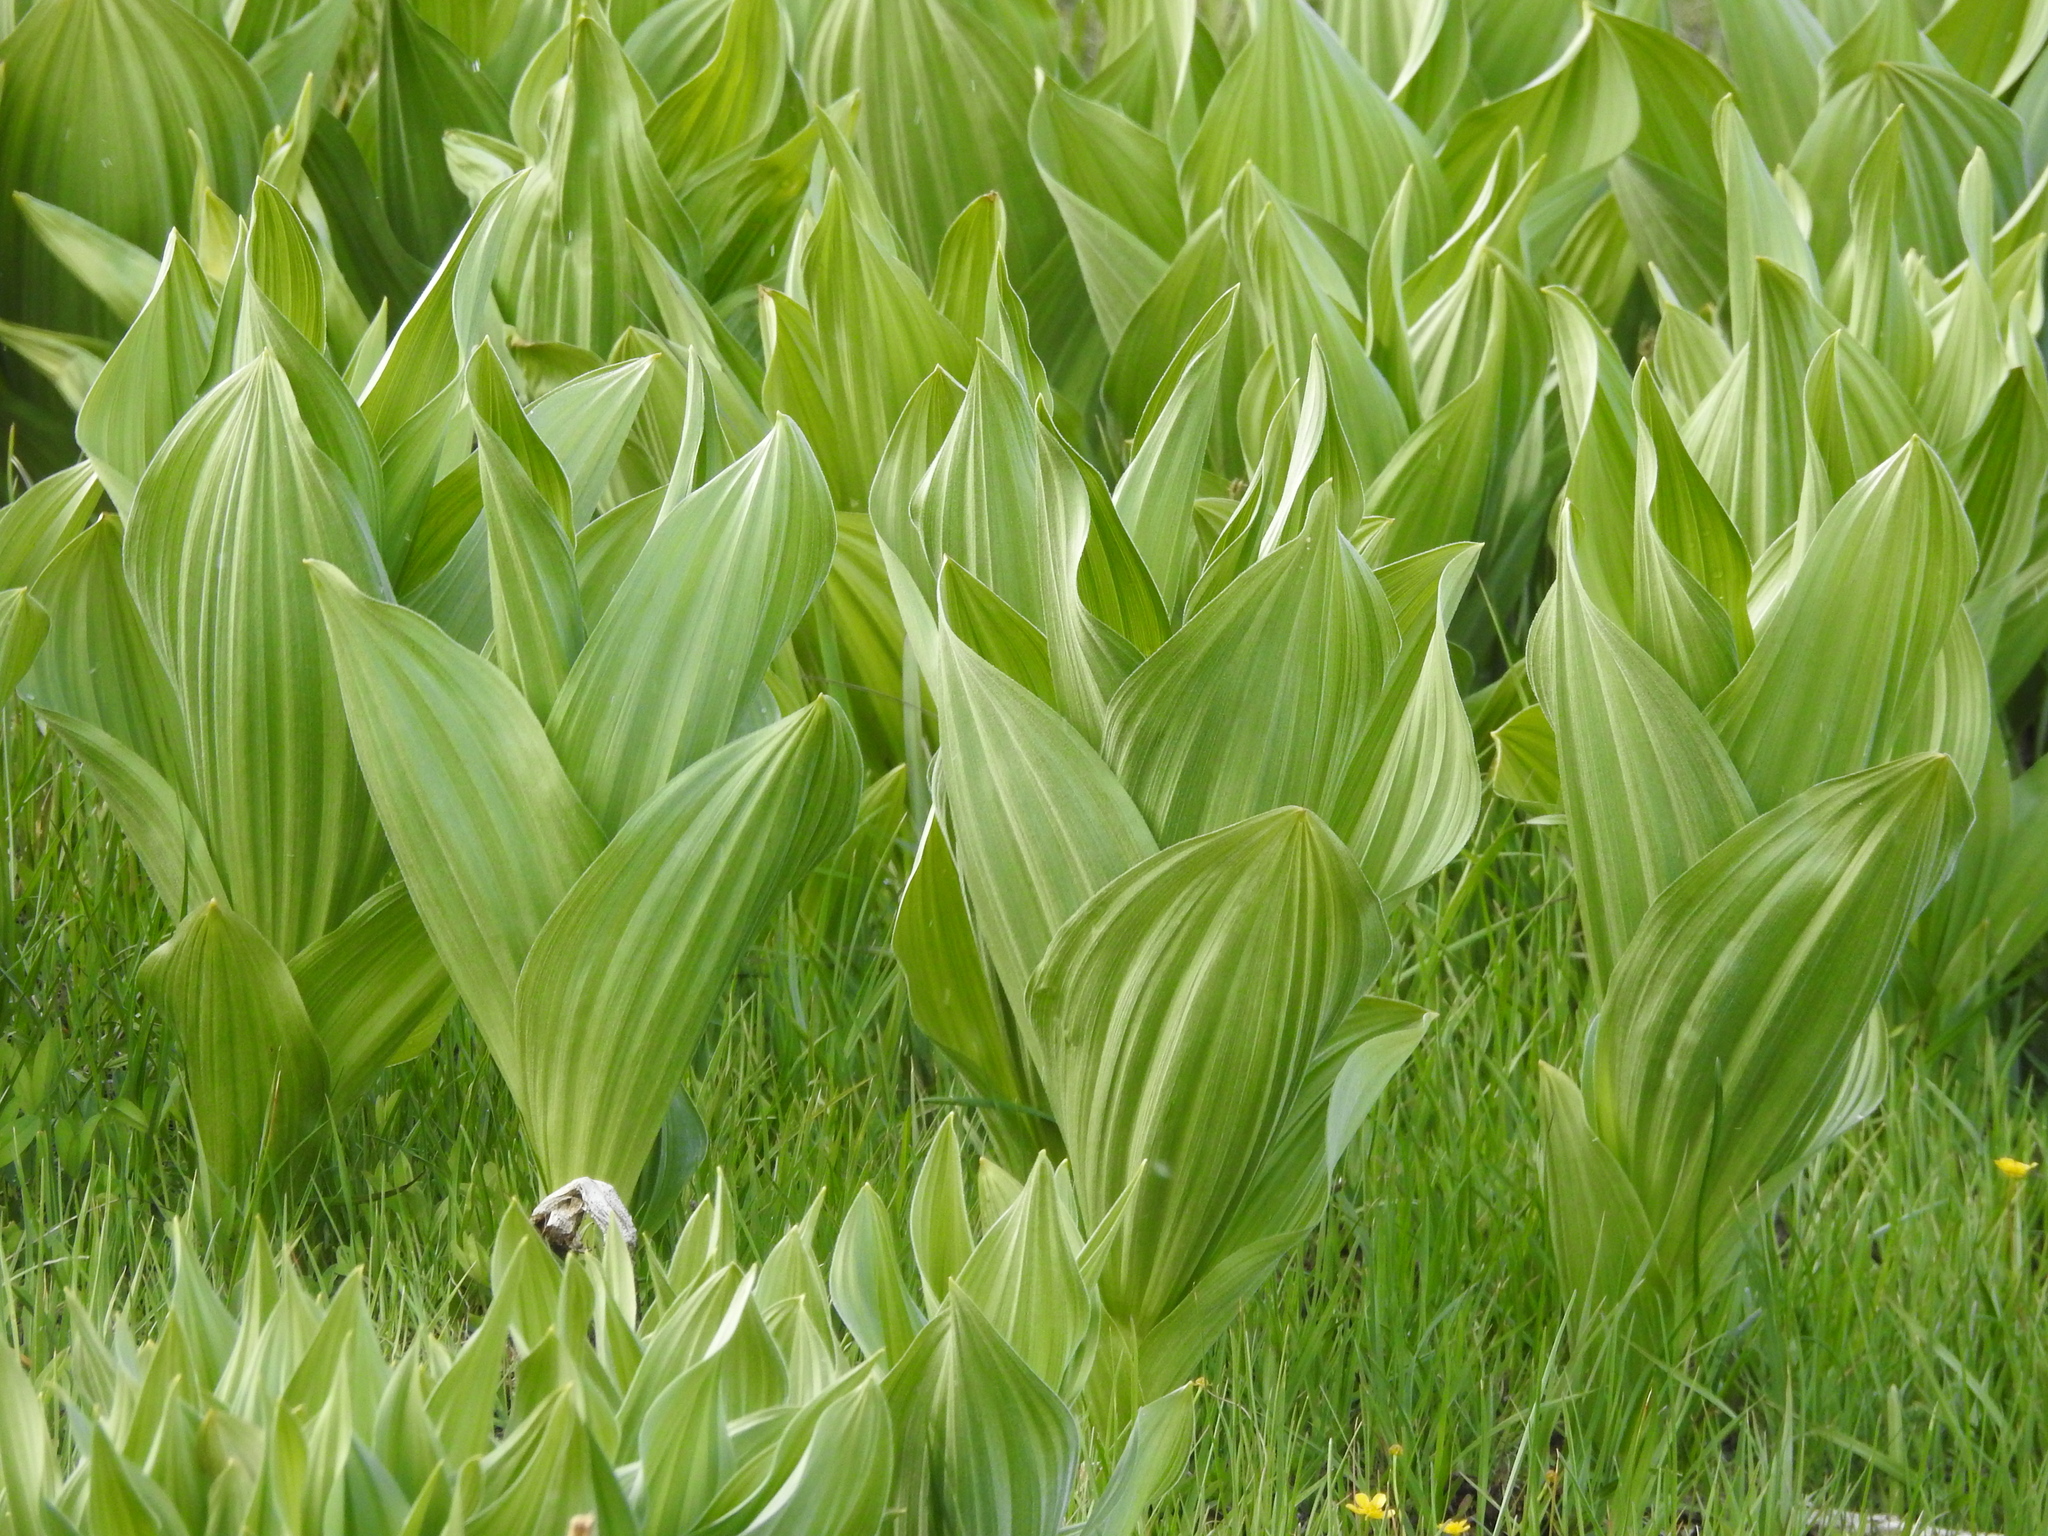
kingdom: Plantae
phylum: Tracheophyta
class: Liliopsida
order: Liliales
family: Melanthiaceae
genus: Veratrum
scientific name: Veratrum californicum
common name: California veratrum
